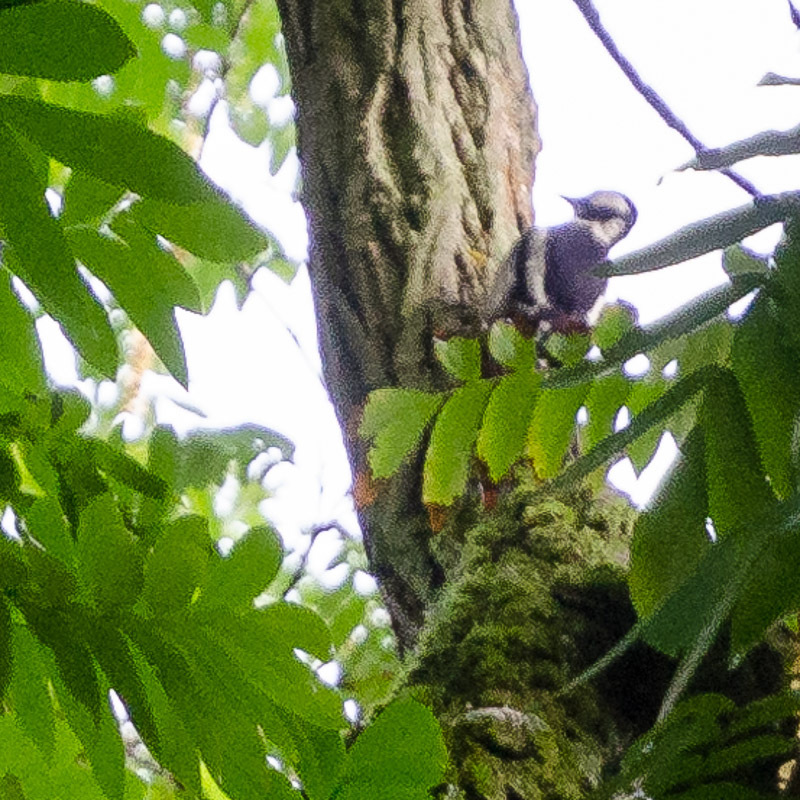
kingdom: Animalia
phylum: Chordata
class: Aves
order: Piciformes
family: Picidae
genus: Dendrocopos
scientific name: Dendrocopos major
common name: Great spotted woodpecker
